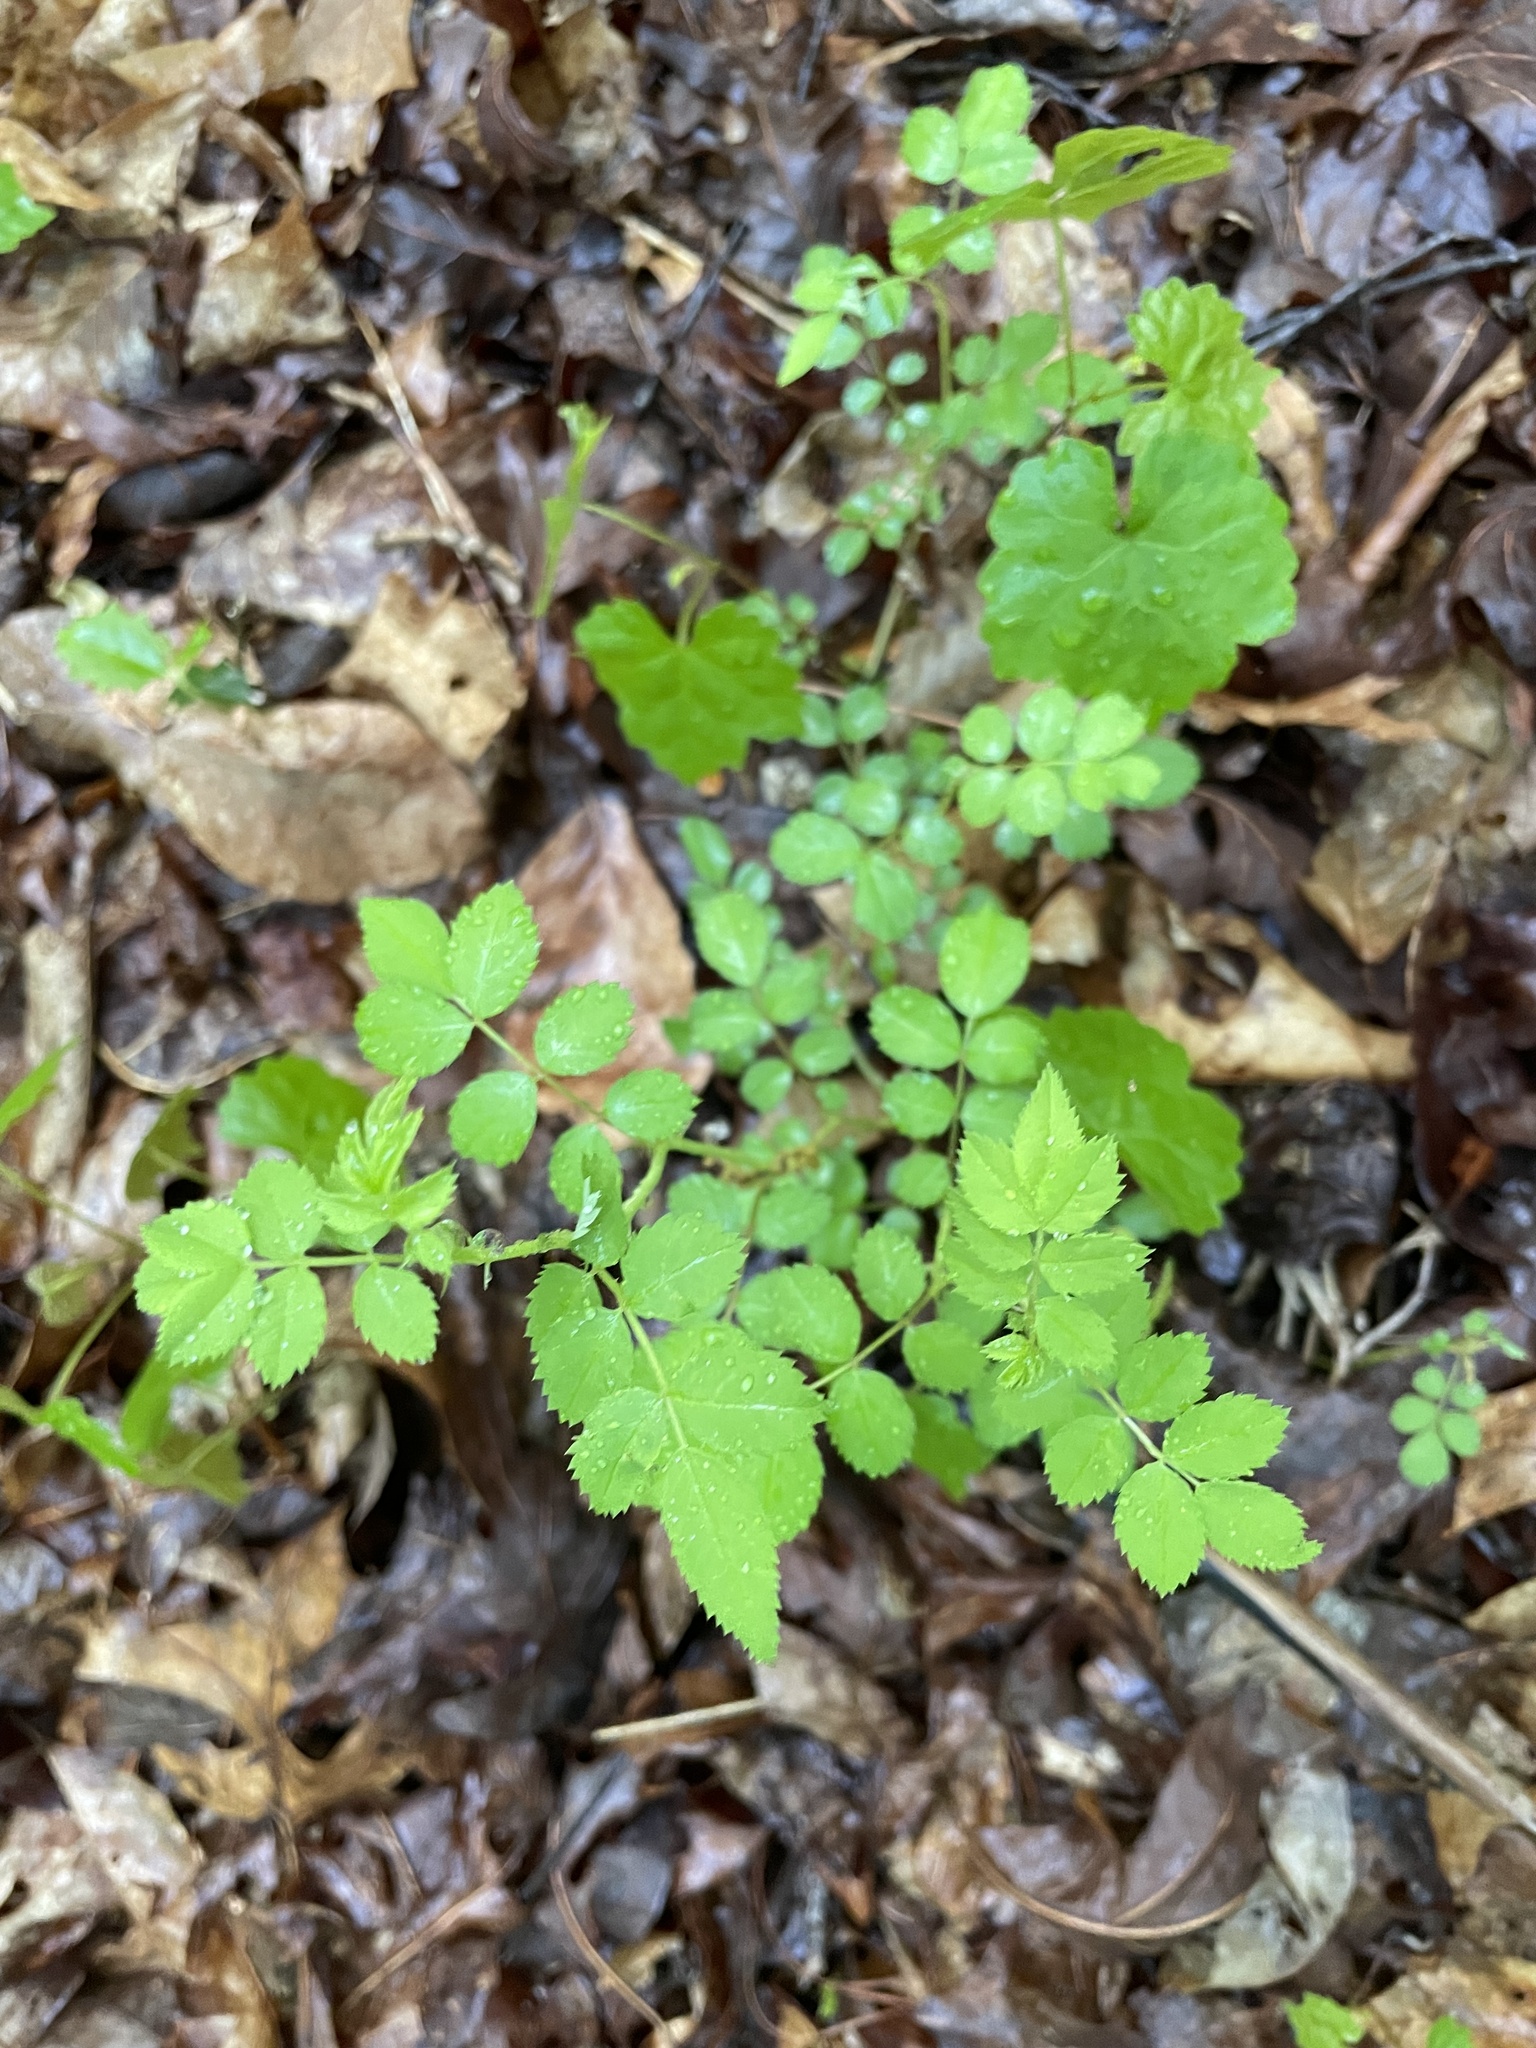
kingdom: Plantae
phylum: Tracheophyta
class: Magnoliopsida
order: Rosales
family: Rosaceae
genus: Rosa
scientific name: Rosa multiflora
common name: Multiflora rose
